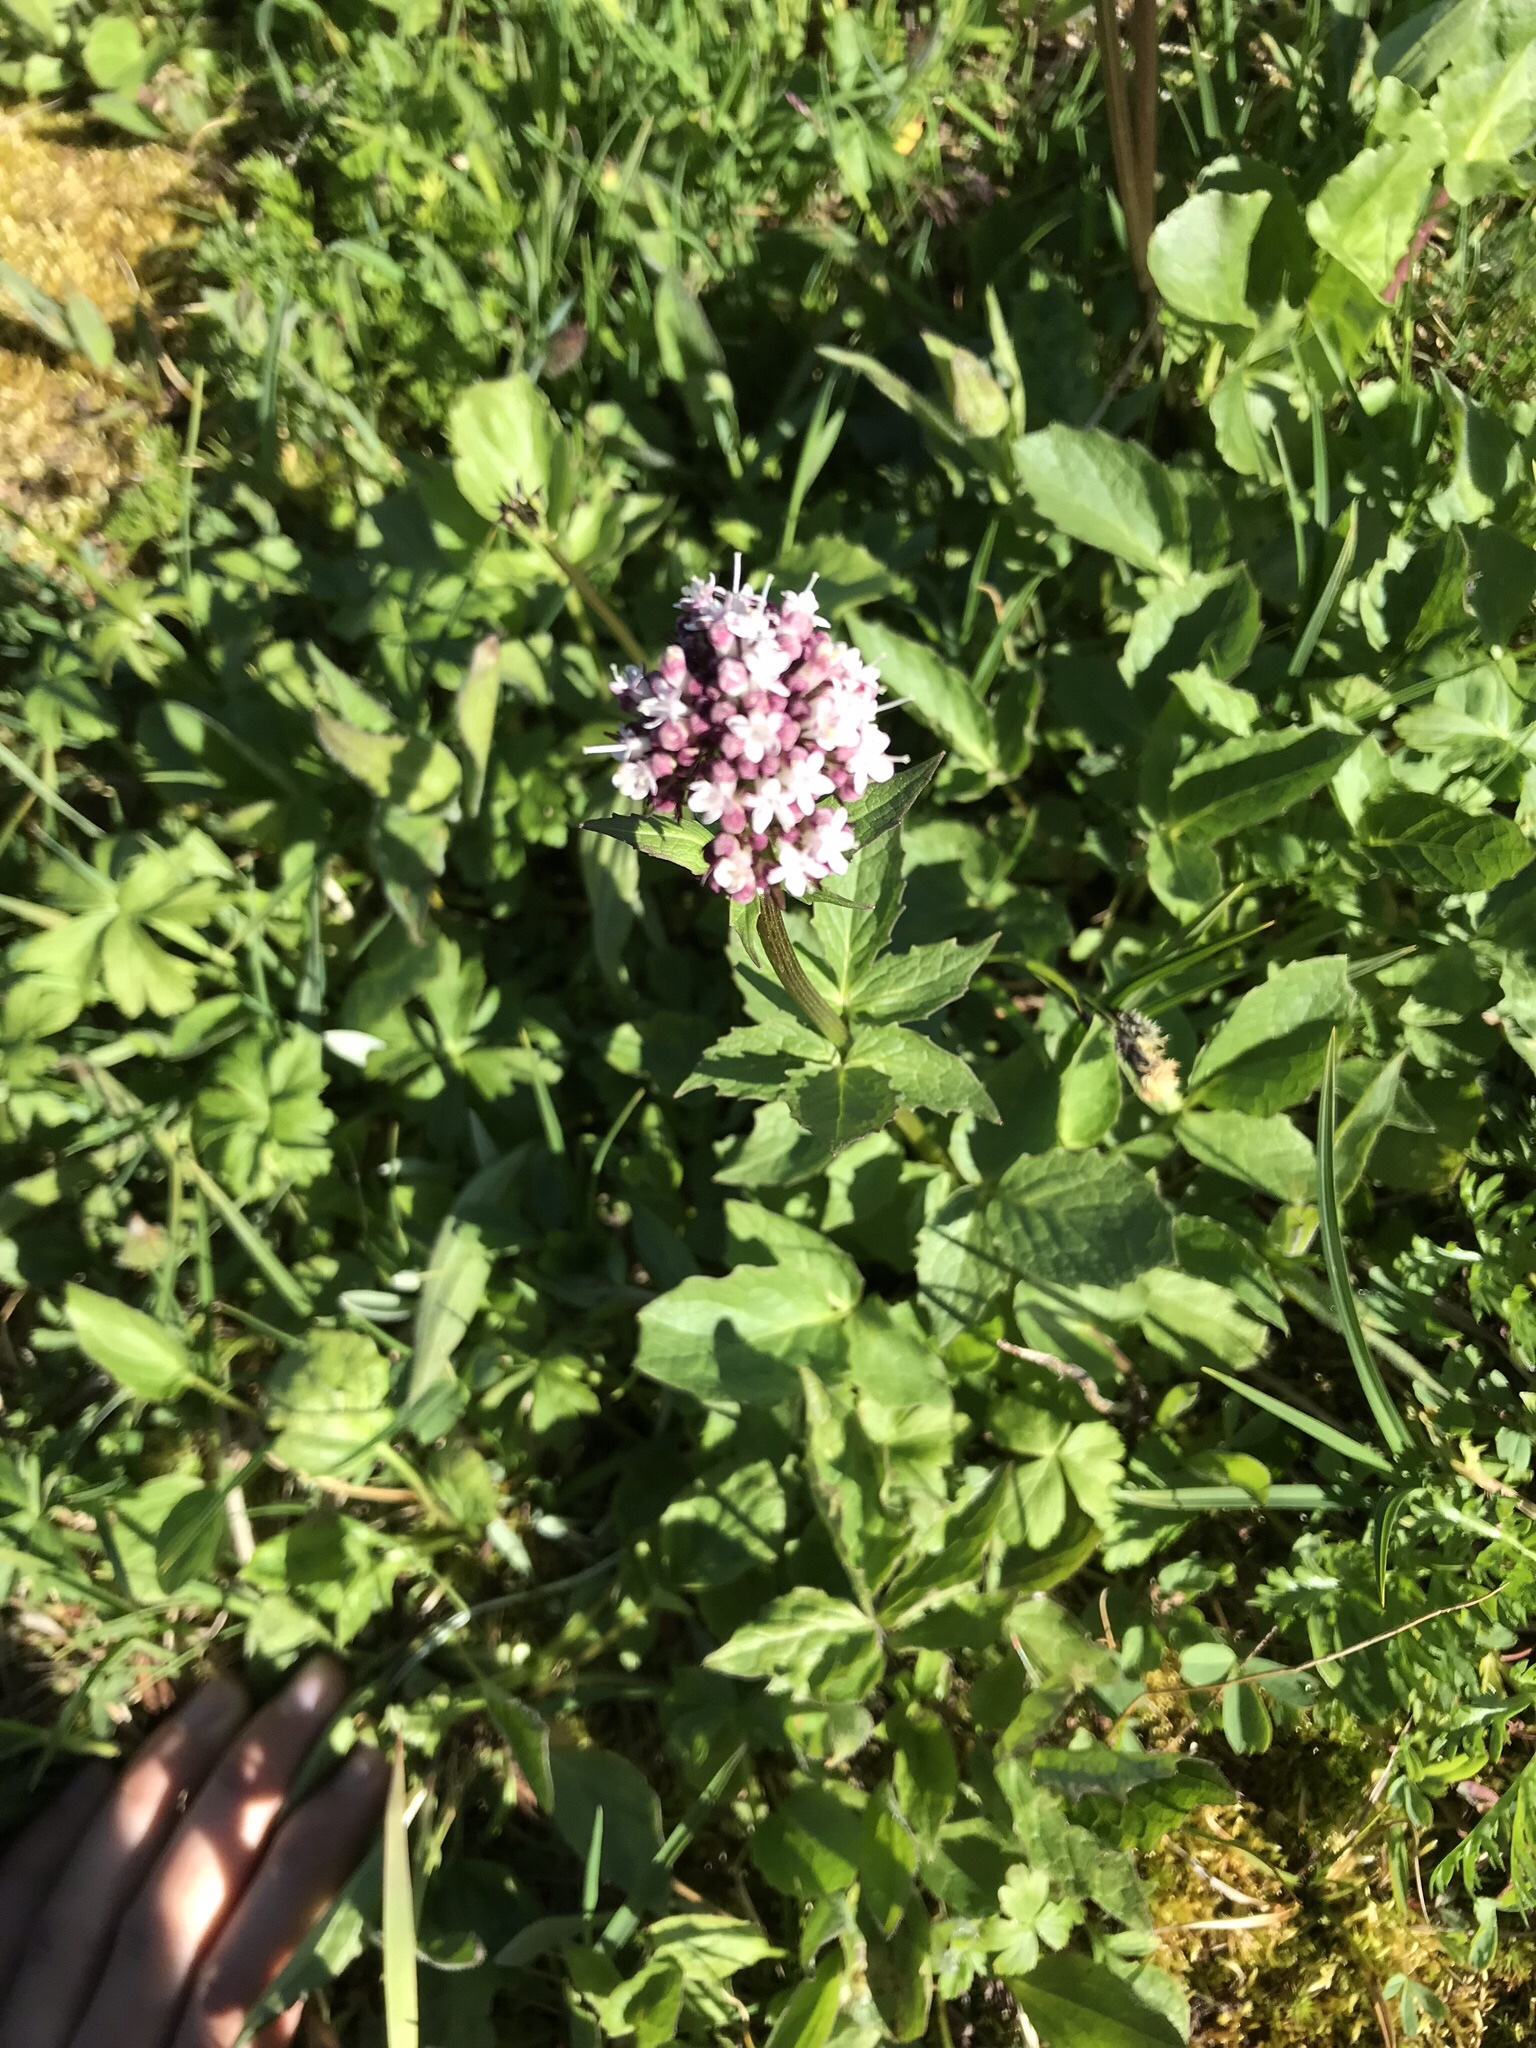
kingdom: Plantae
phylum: Tracheophyta
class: Magnoliopsida
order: Dipsacales
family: Caprifoliaceae
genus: Valeriana
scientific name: Valeriana sitchensis
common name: Pacific valerian
